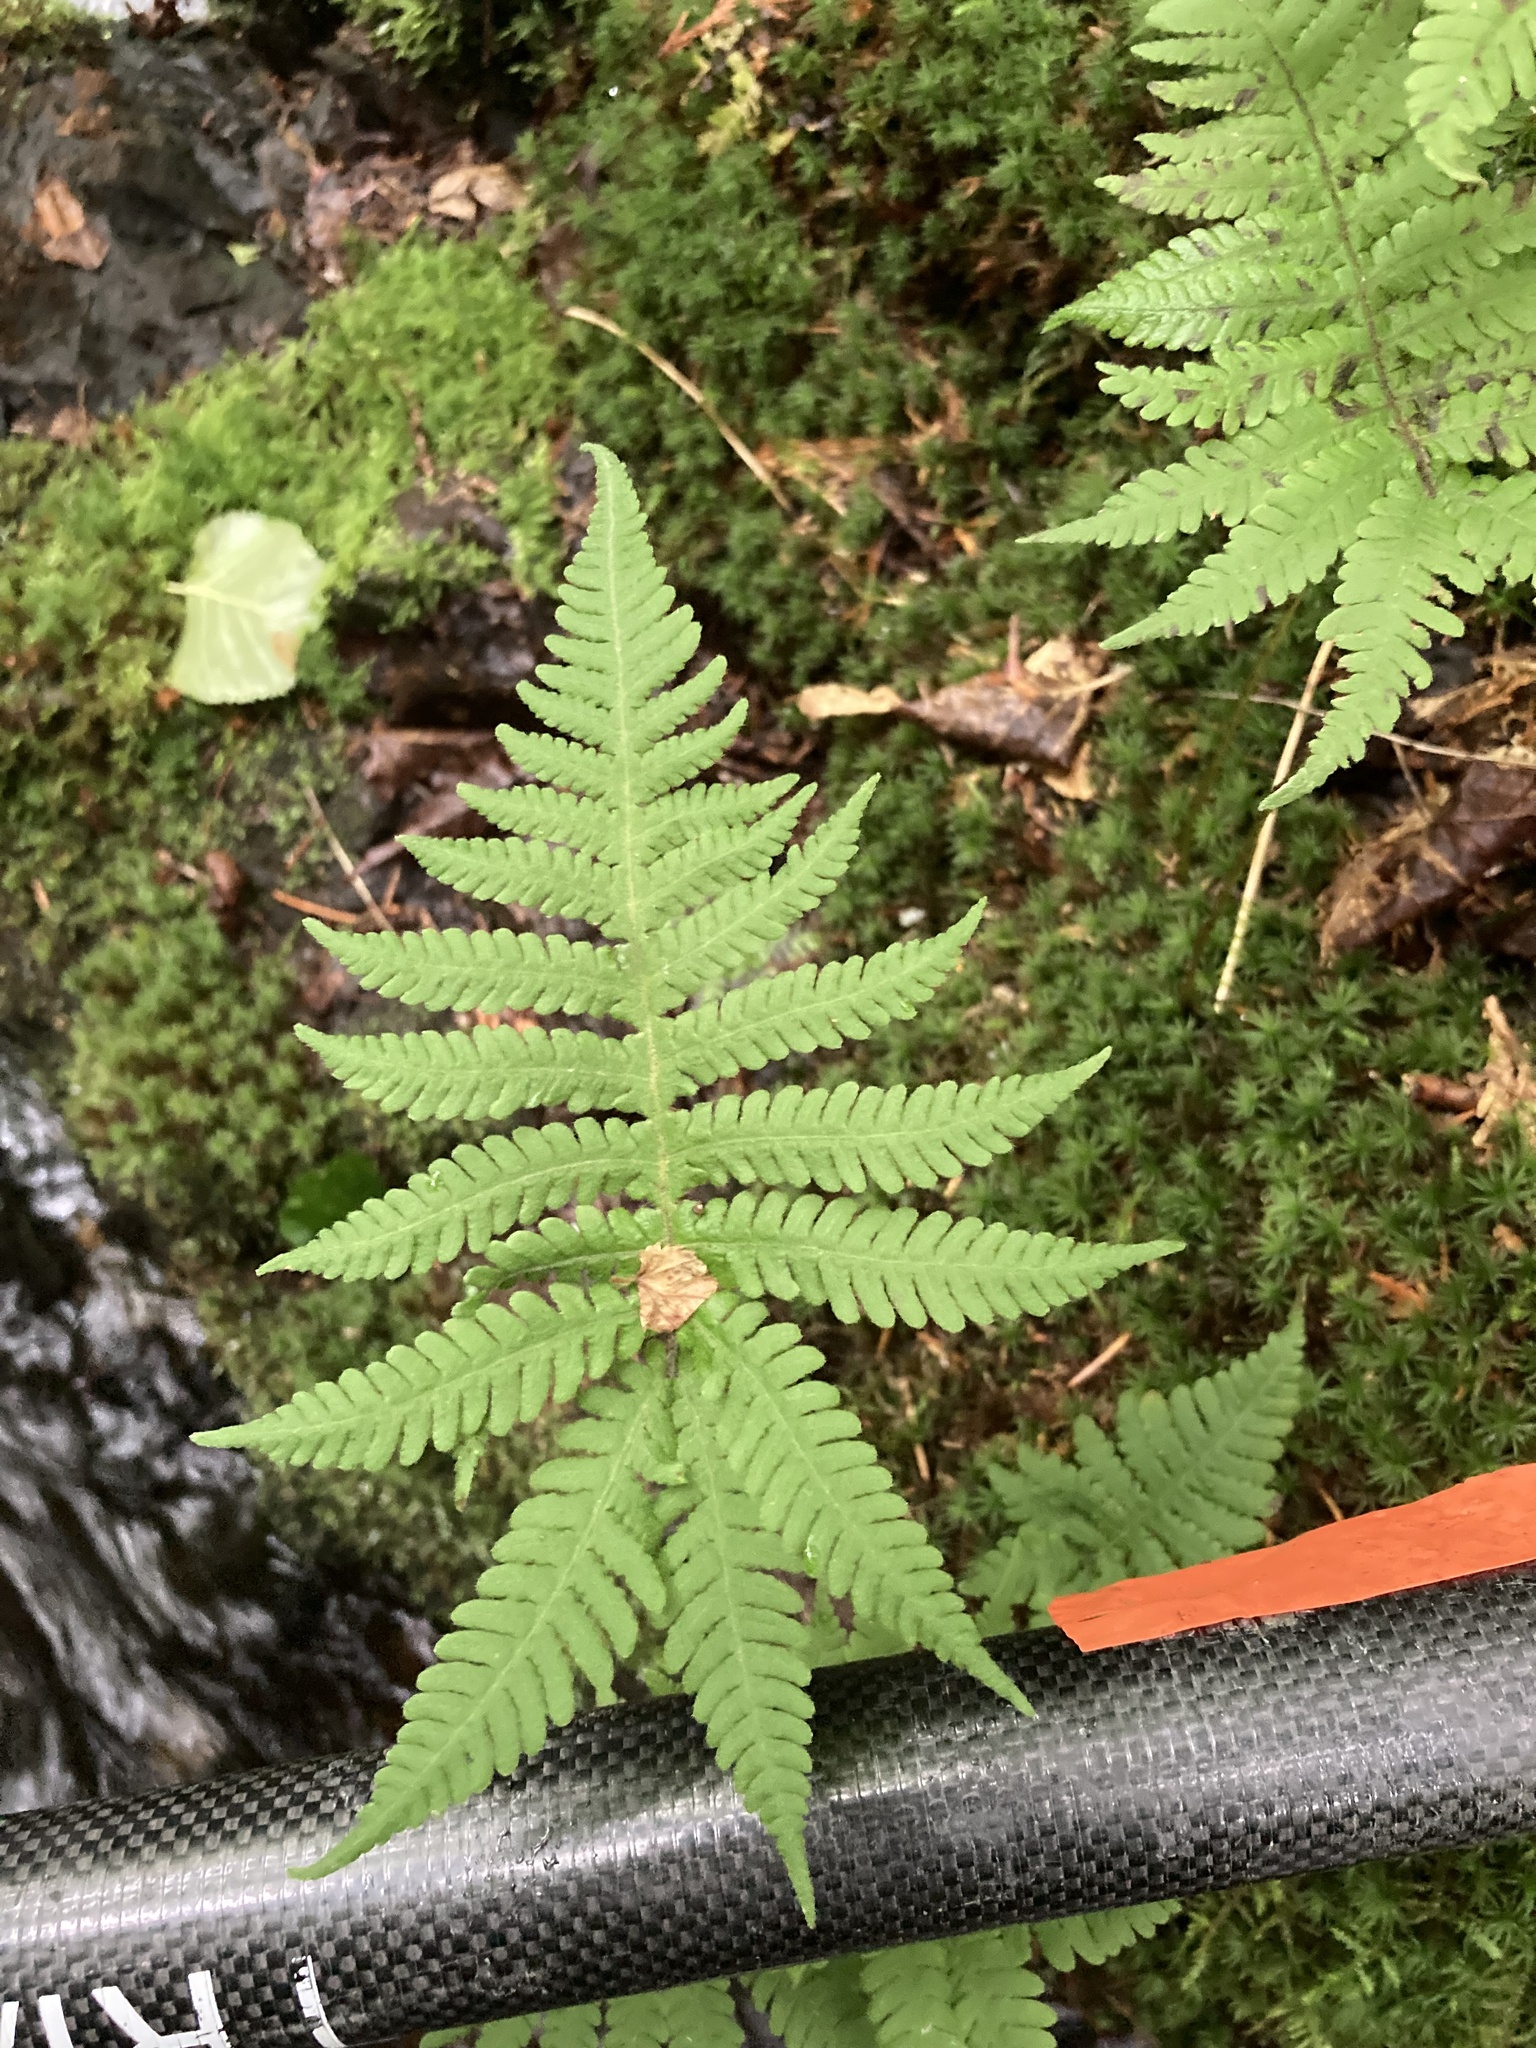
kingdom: Plantae
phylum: Tracheophyta
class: Polypodiopsida
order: Polypodiales
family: Thelypteridaceae
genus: Phegopteris
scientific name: Phegopteris connectilis
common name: Beech fern
